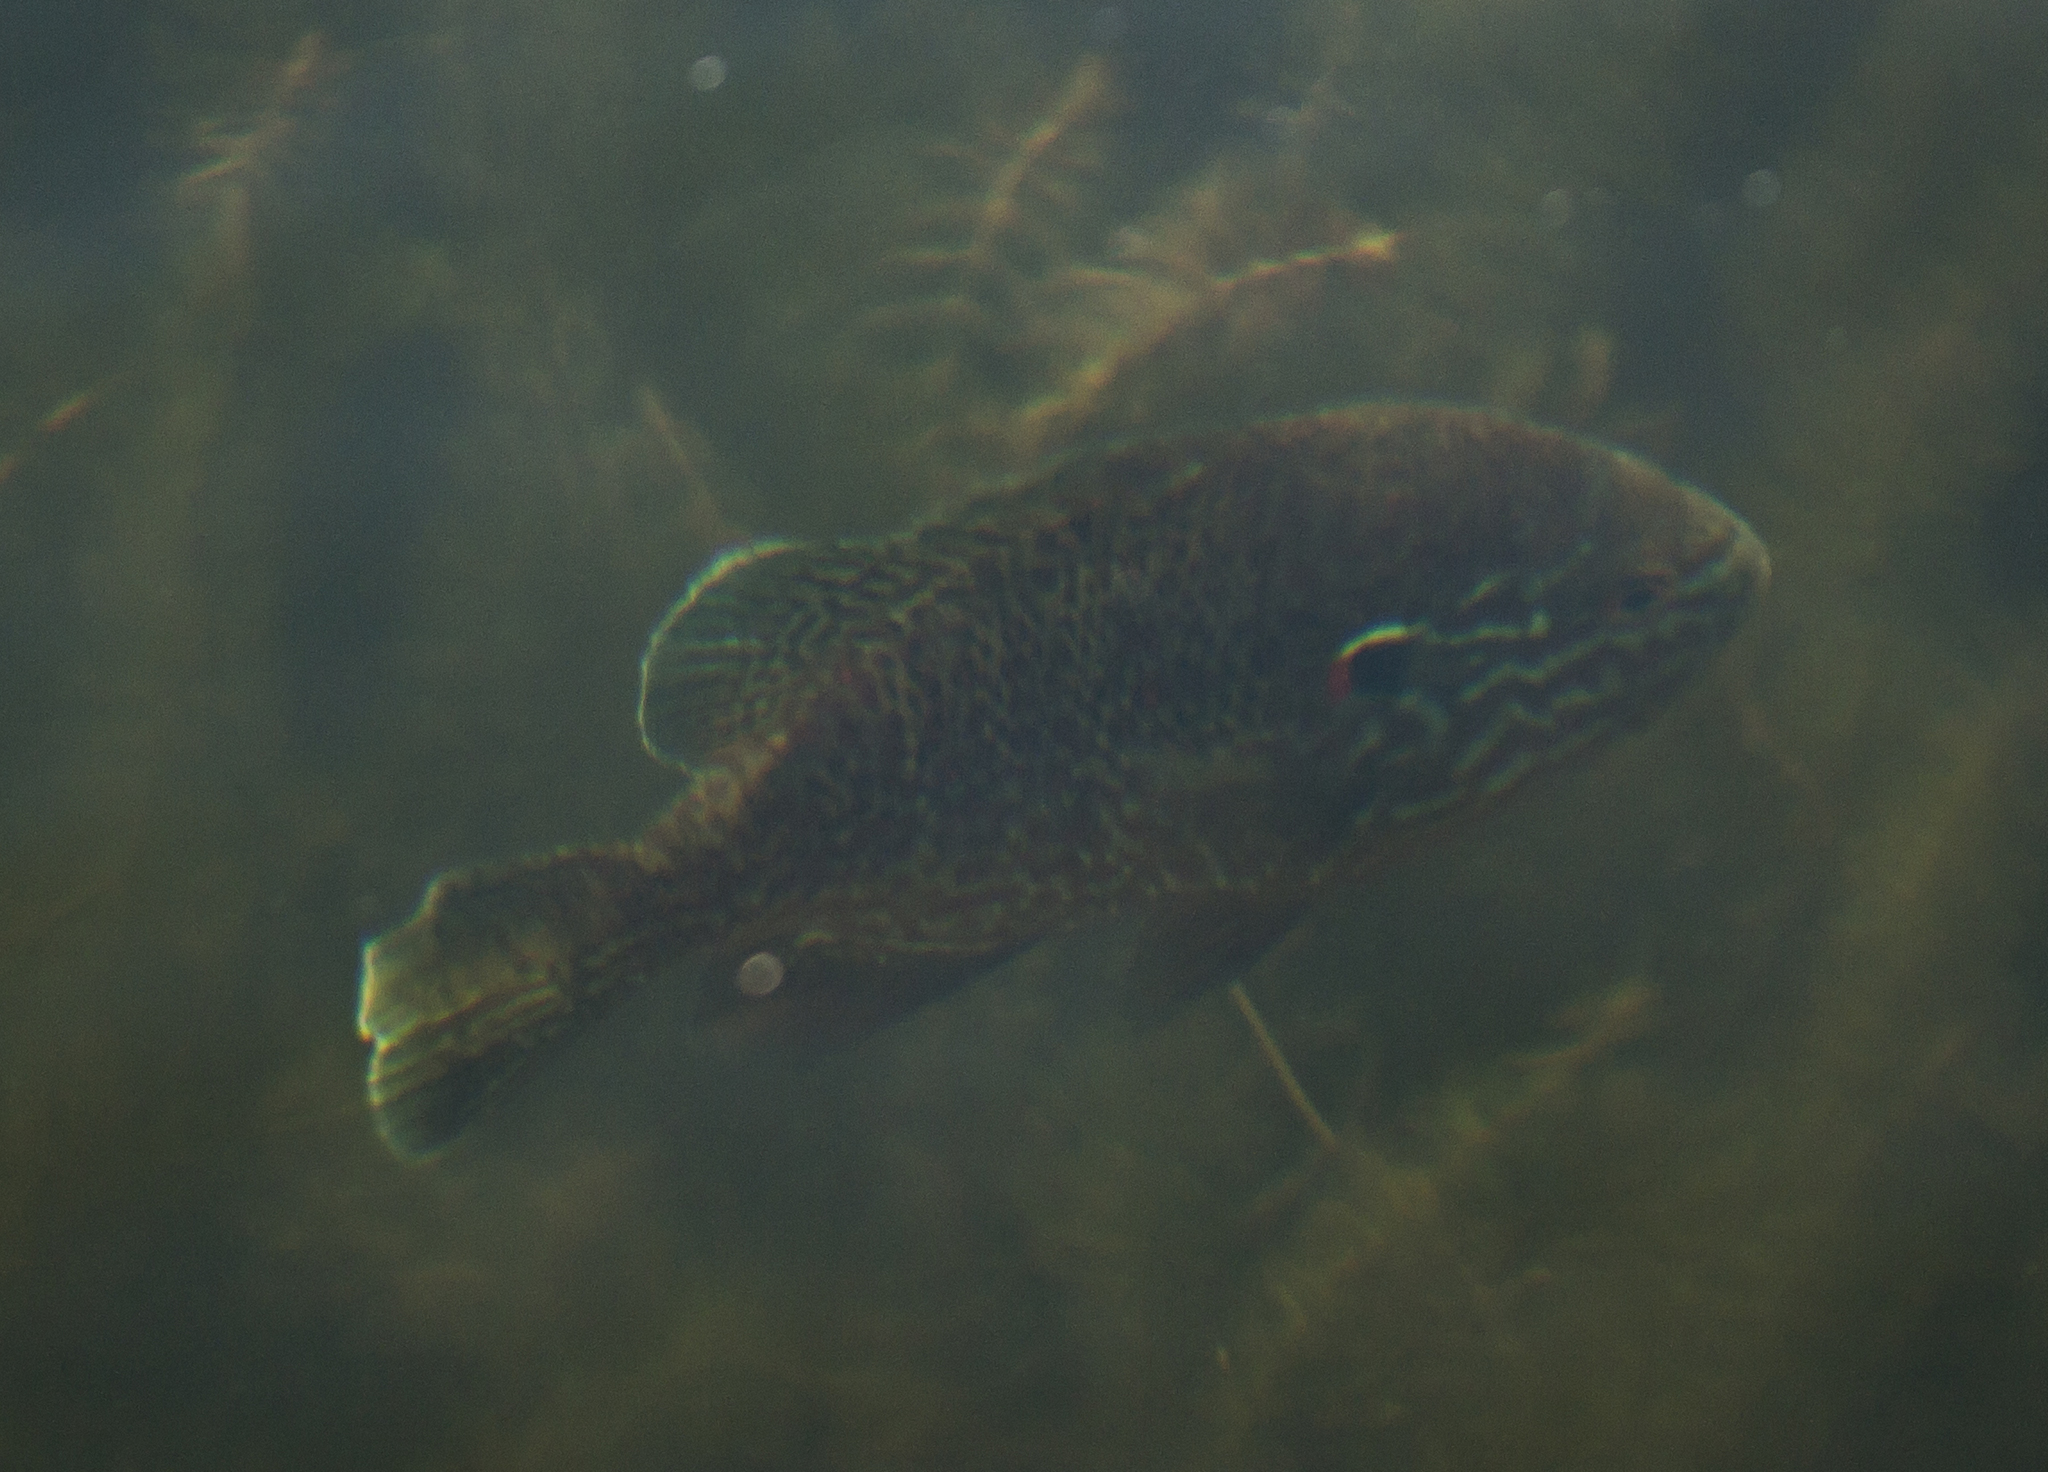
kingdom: Animalia
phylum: Chordata
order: Perciformes
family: Centrarchidae
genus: Lepomis
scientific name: Lepomis gibbosus
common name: Pumpkinseed
